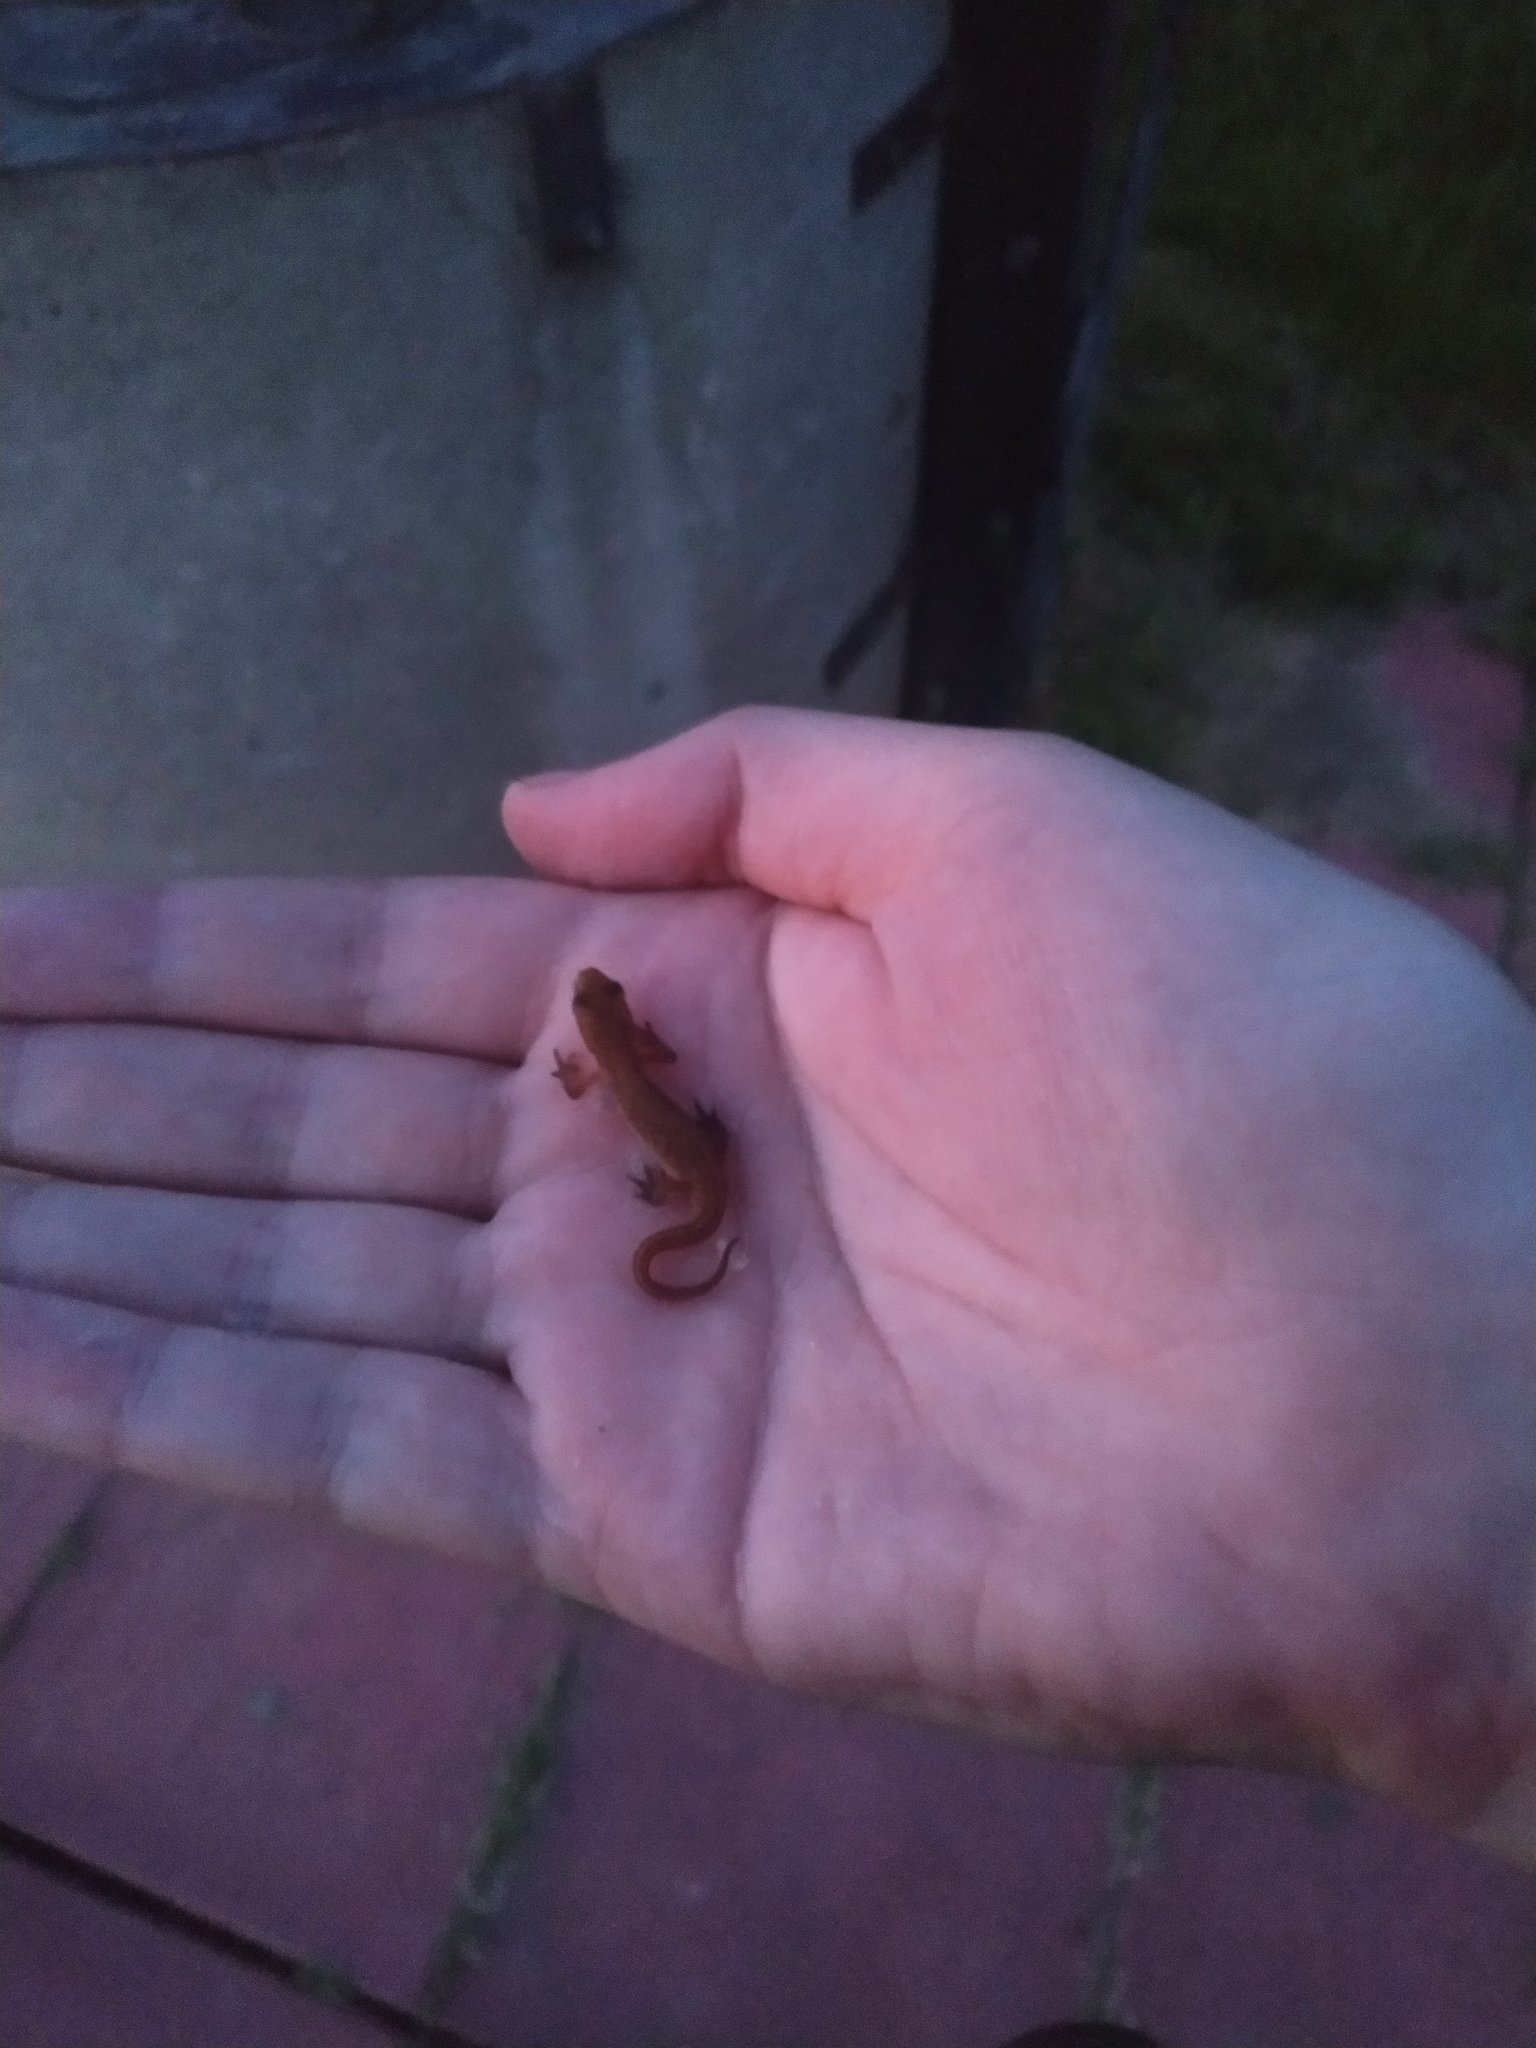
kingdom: Animalia
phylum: Chordata
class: Amphibia
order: Caudata
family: Salamandridae
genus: Lissotriton
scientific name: Lissotriton vulgaris
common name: Smooth newt
